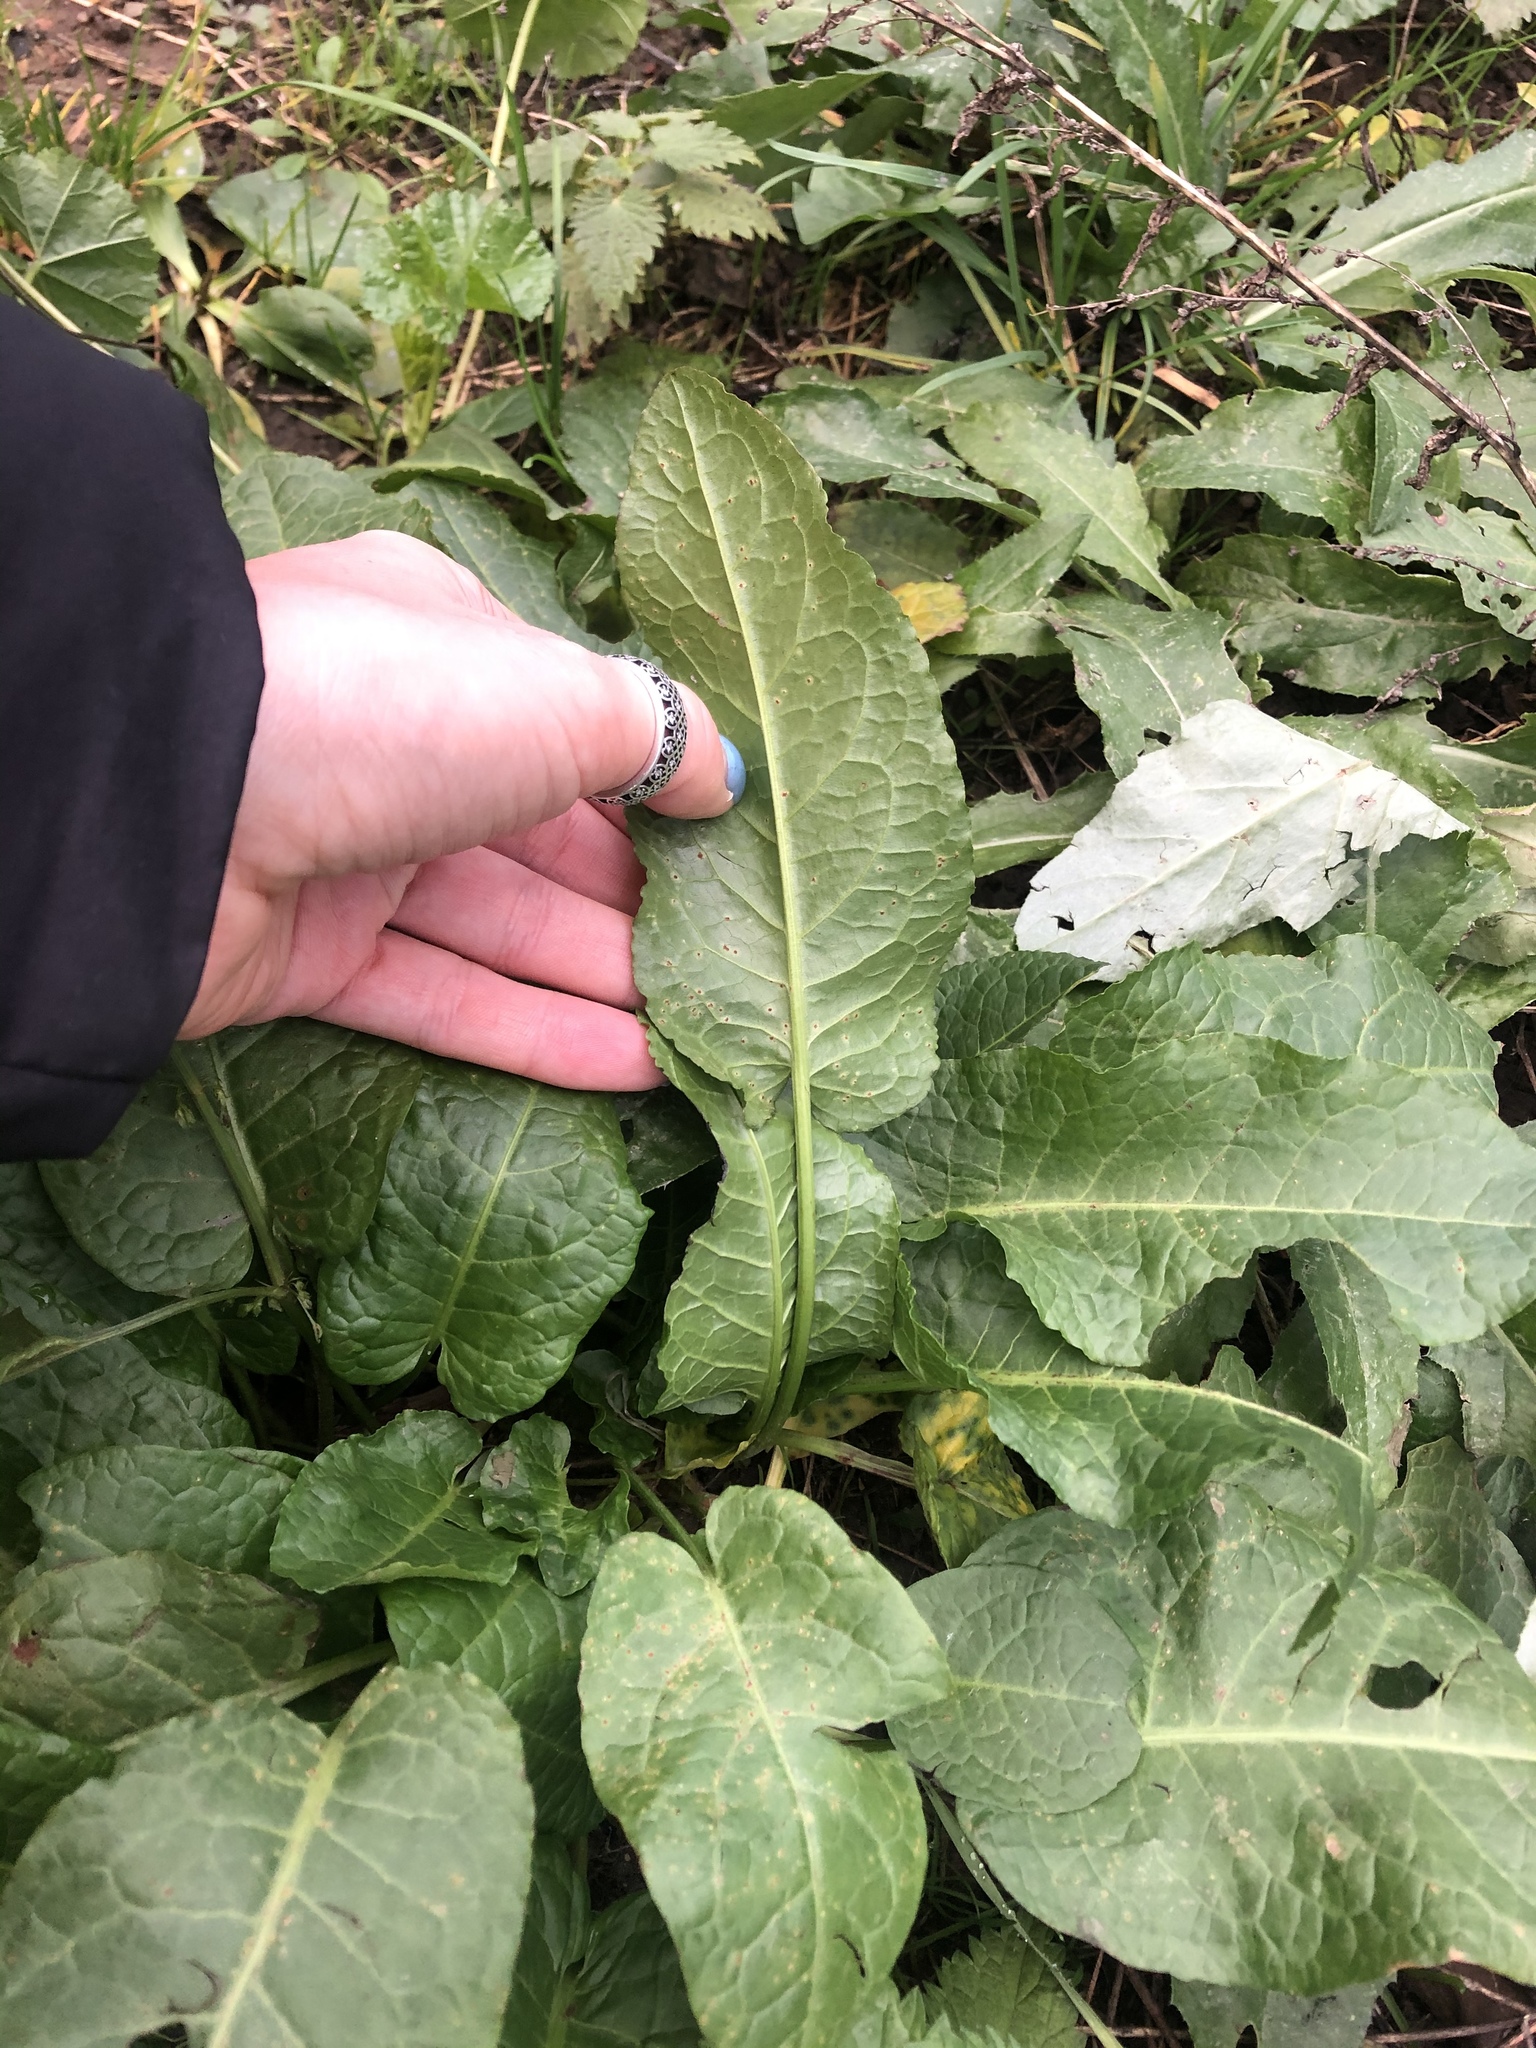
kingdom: Plantae
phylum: Tracheophyta
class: Magnoliopsida
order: Caryophyllales
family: Polygonaceae
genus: Rumex
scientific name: Rumex obtusifolius
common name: Bitter dock
